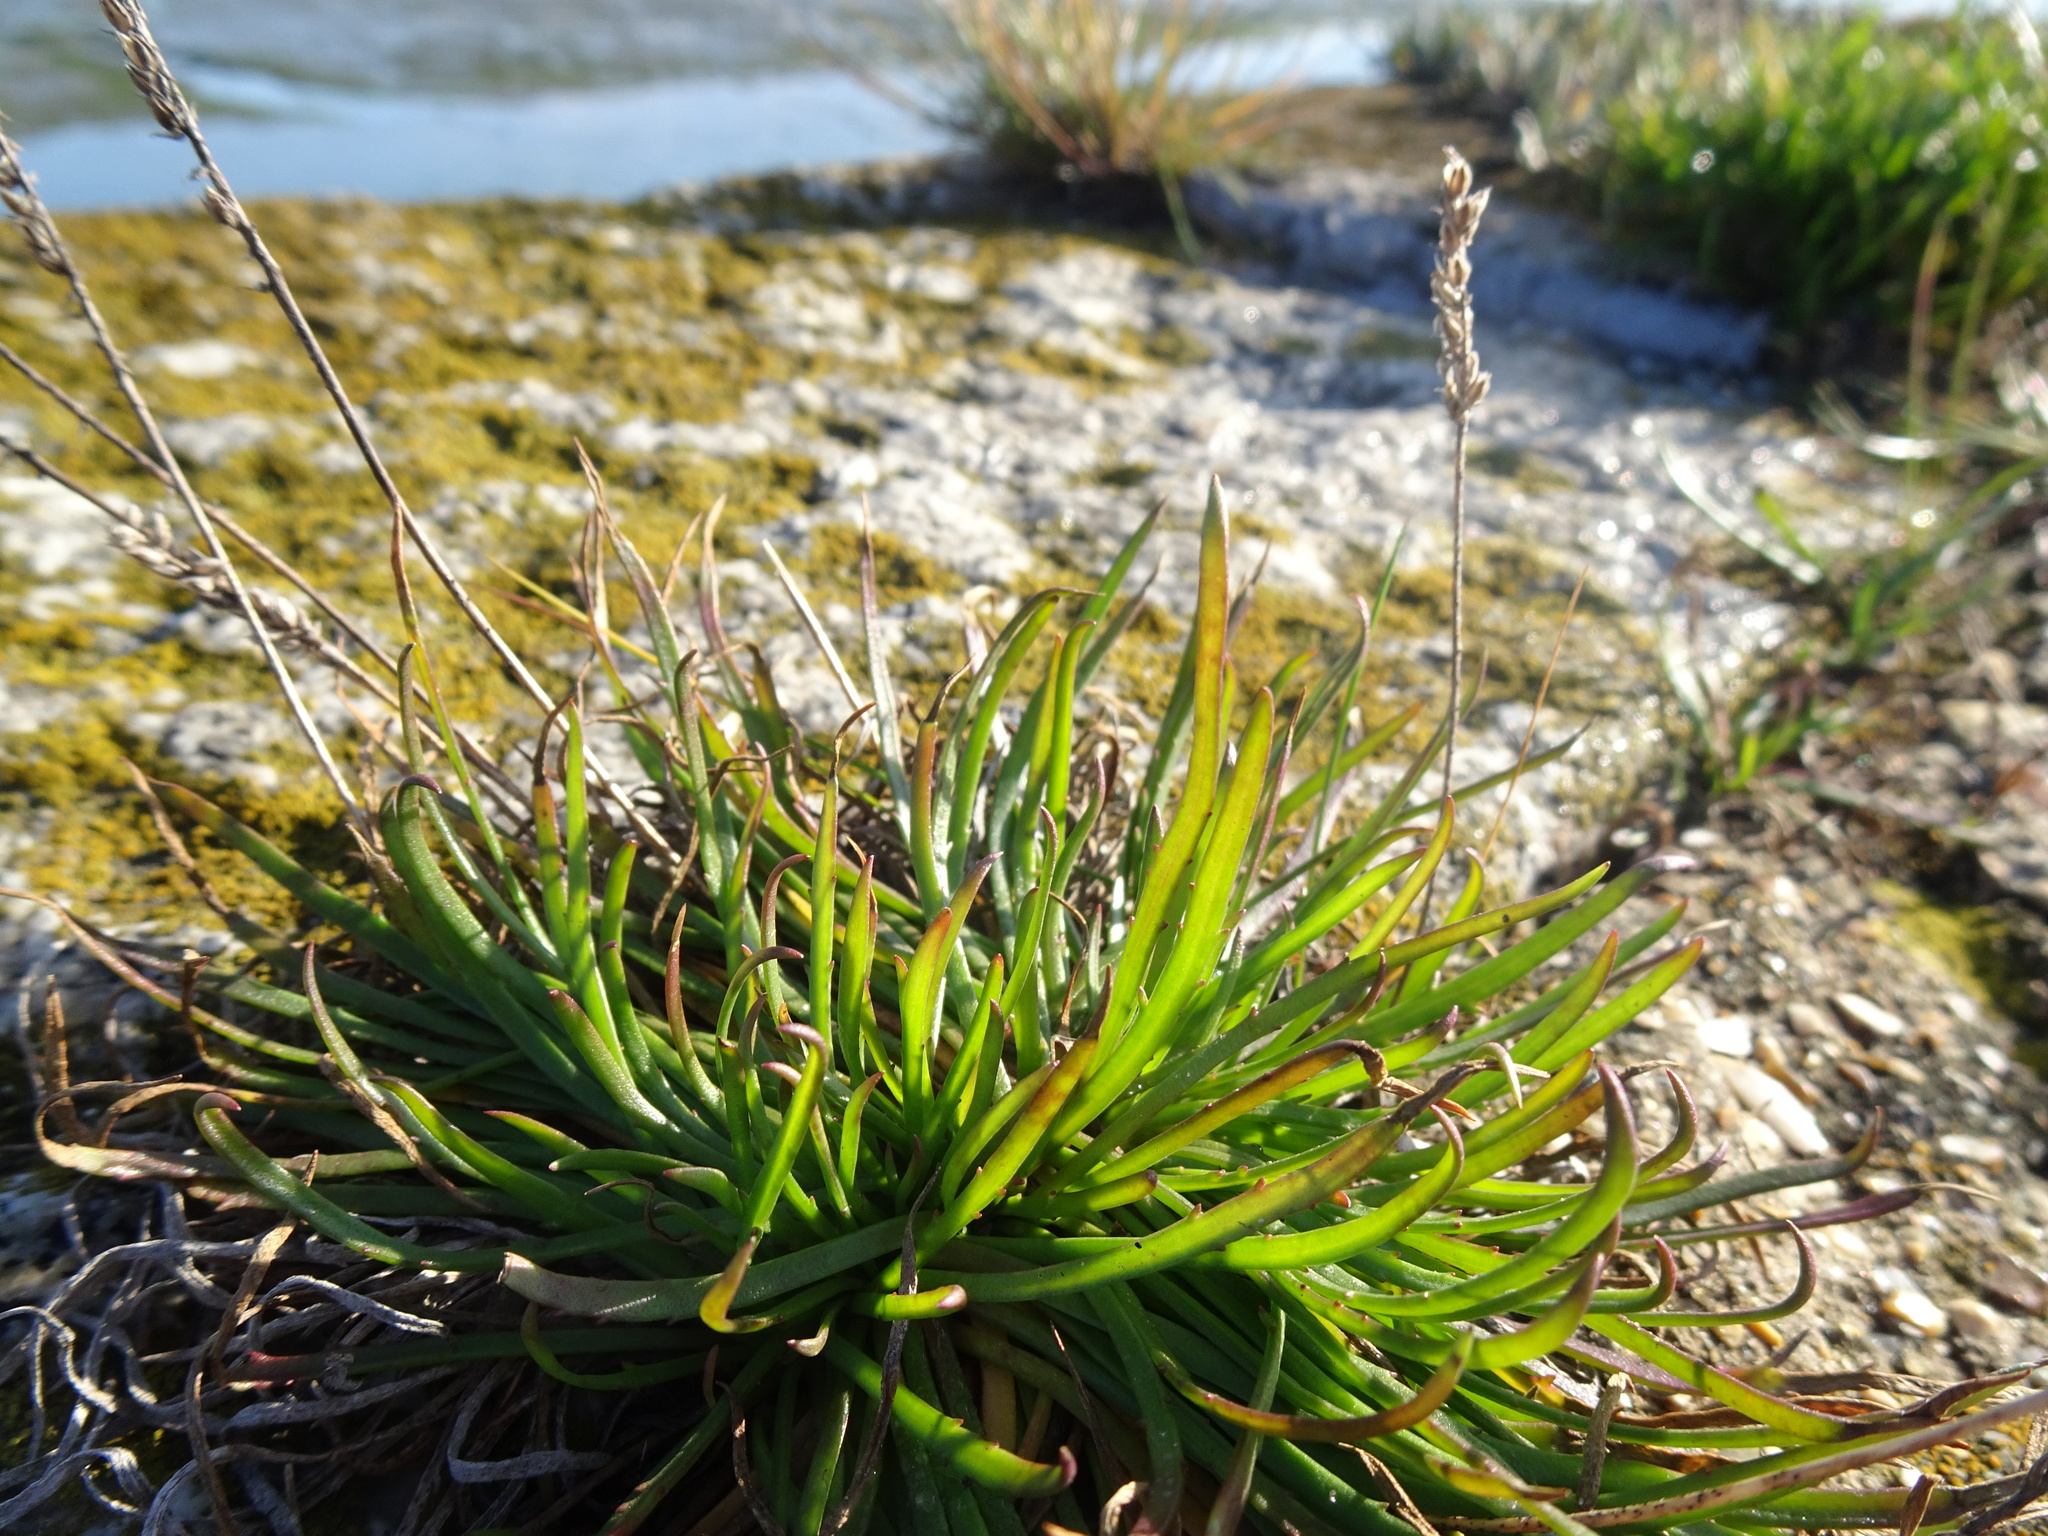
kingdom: Plantae
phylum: Tracheophyta
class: Magnoliopsida
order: Lamiales
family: Plantaginaceae
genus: Plantago
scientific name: Plantago maritima
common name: Sea plantain
